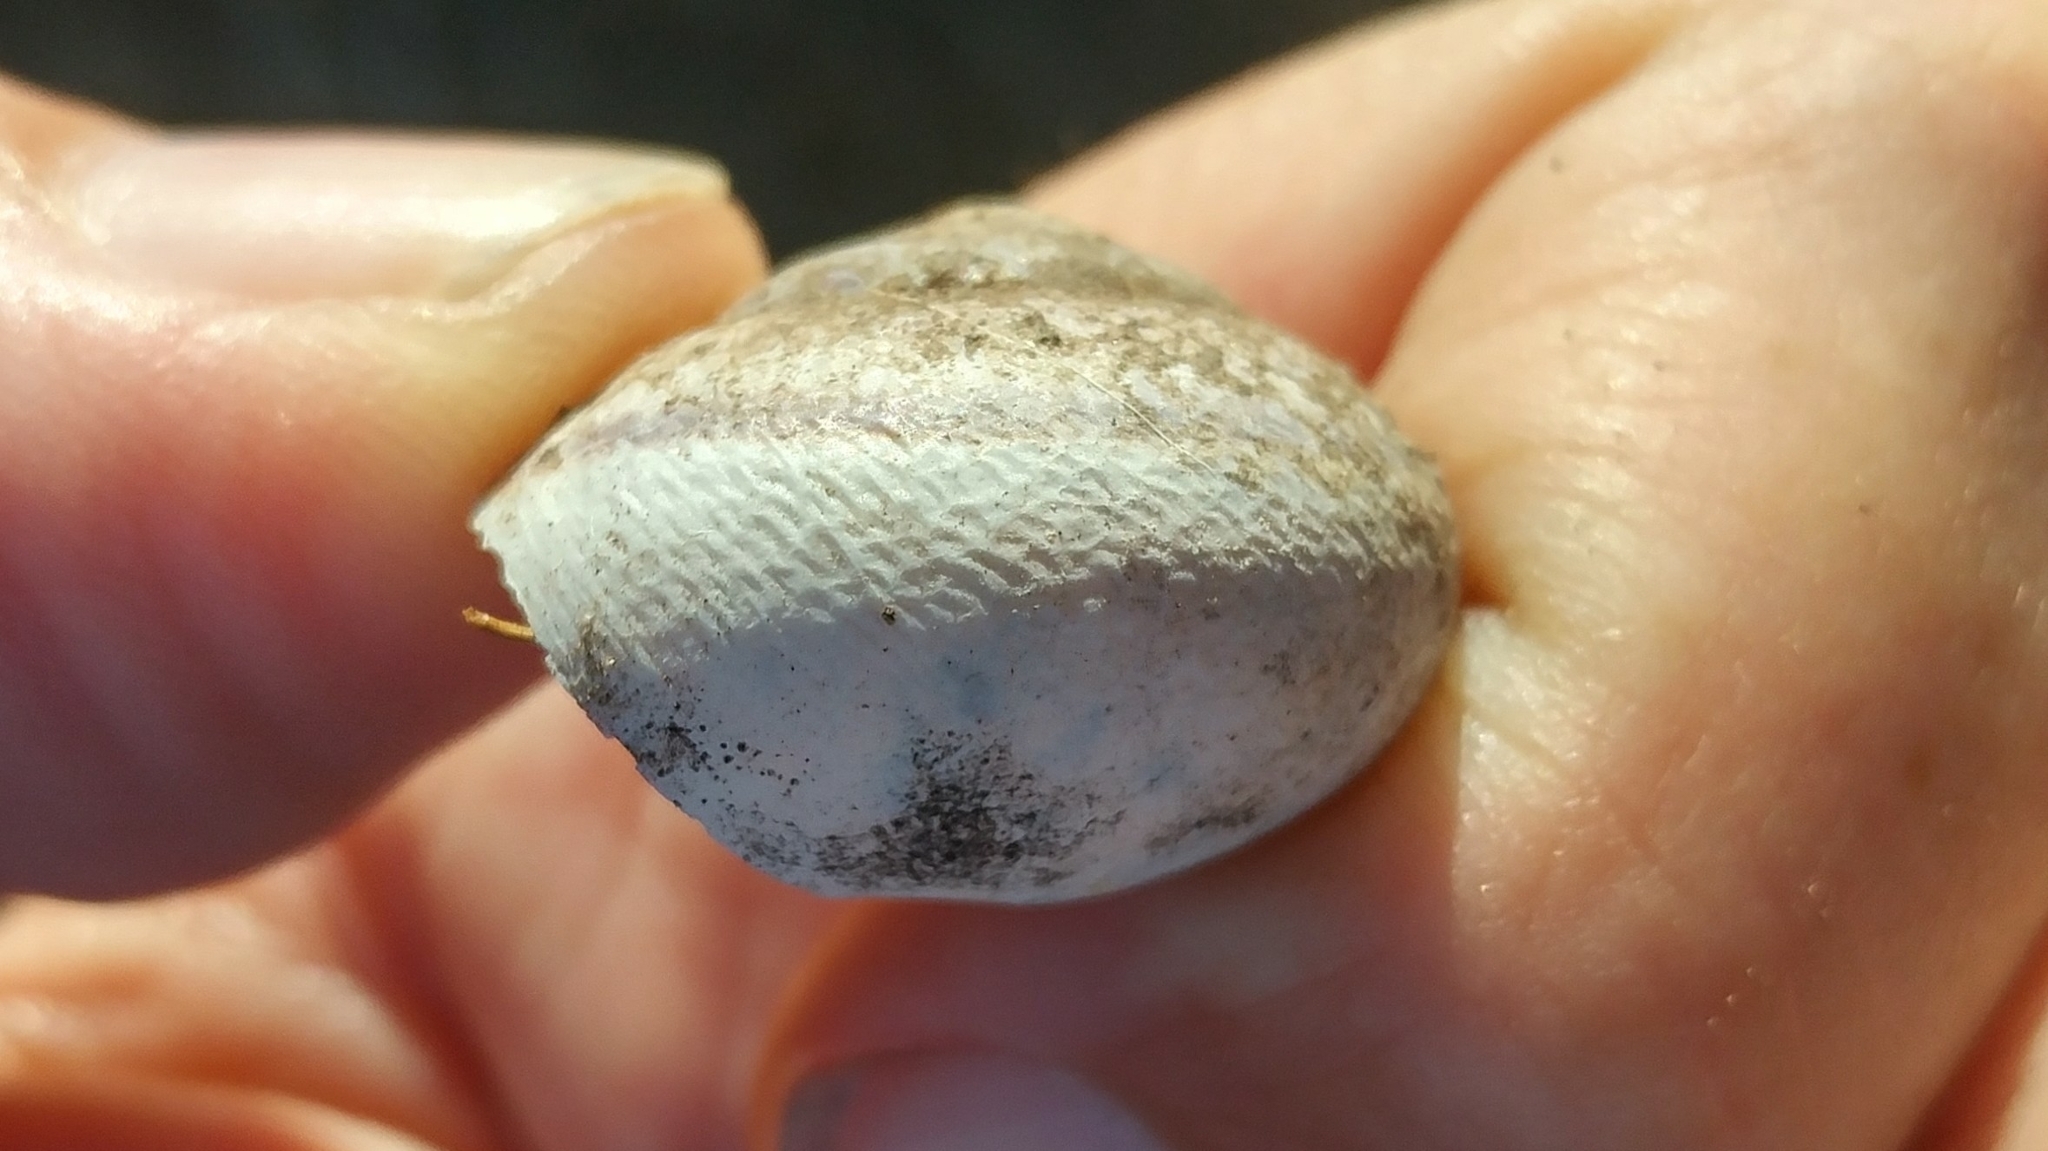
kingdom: Animalia
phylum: Mollusca
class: Gastropoda
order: Stylommatophora
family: Xanthonychidae
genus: Helminthoglypta
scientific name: Helminthoglypta tudiculata
